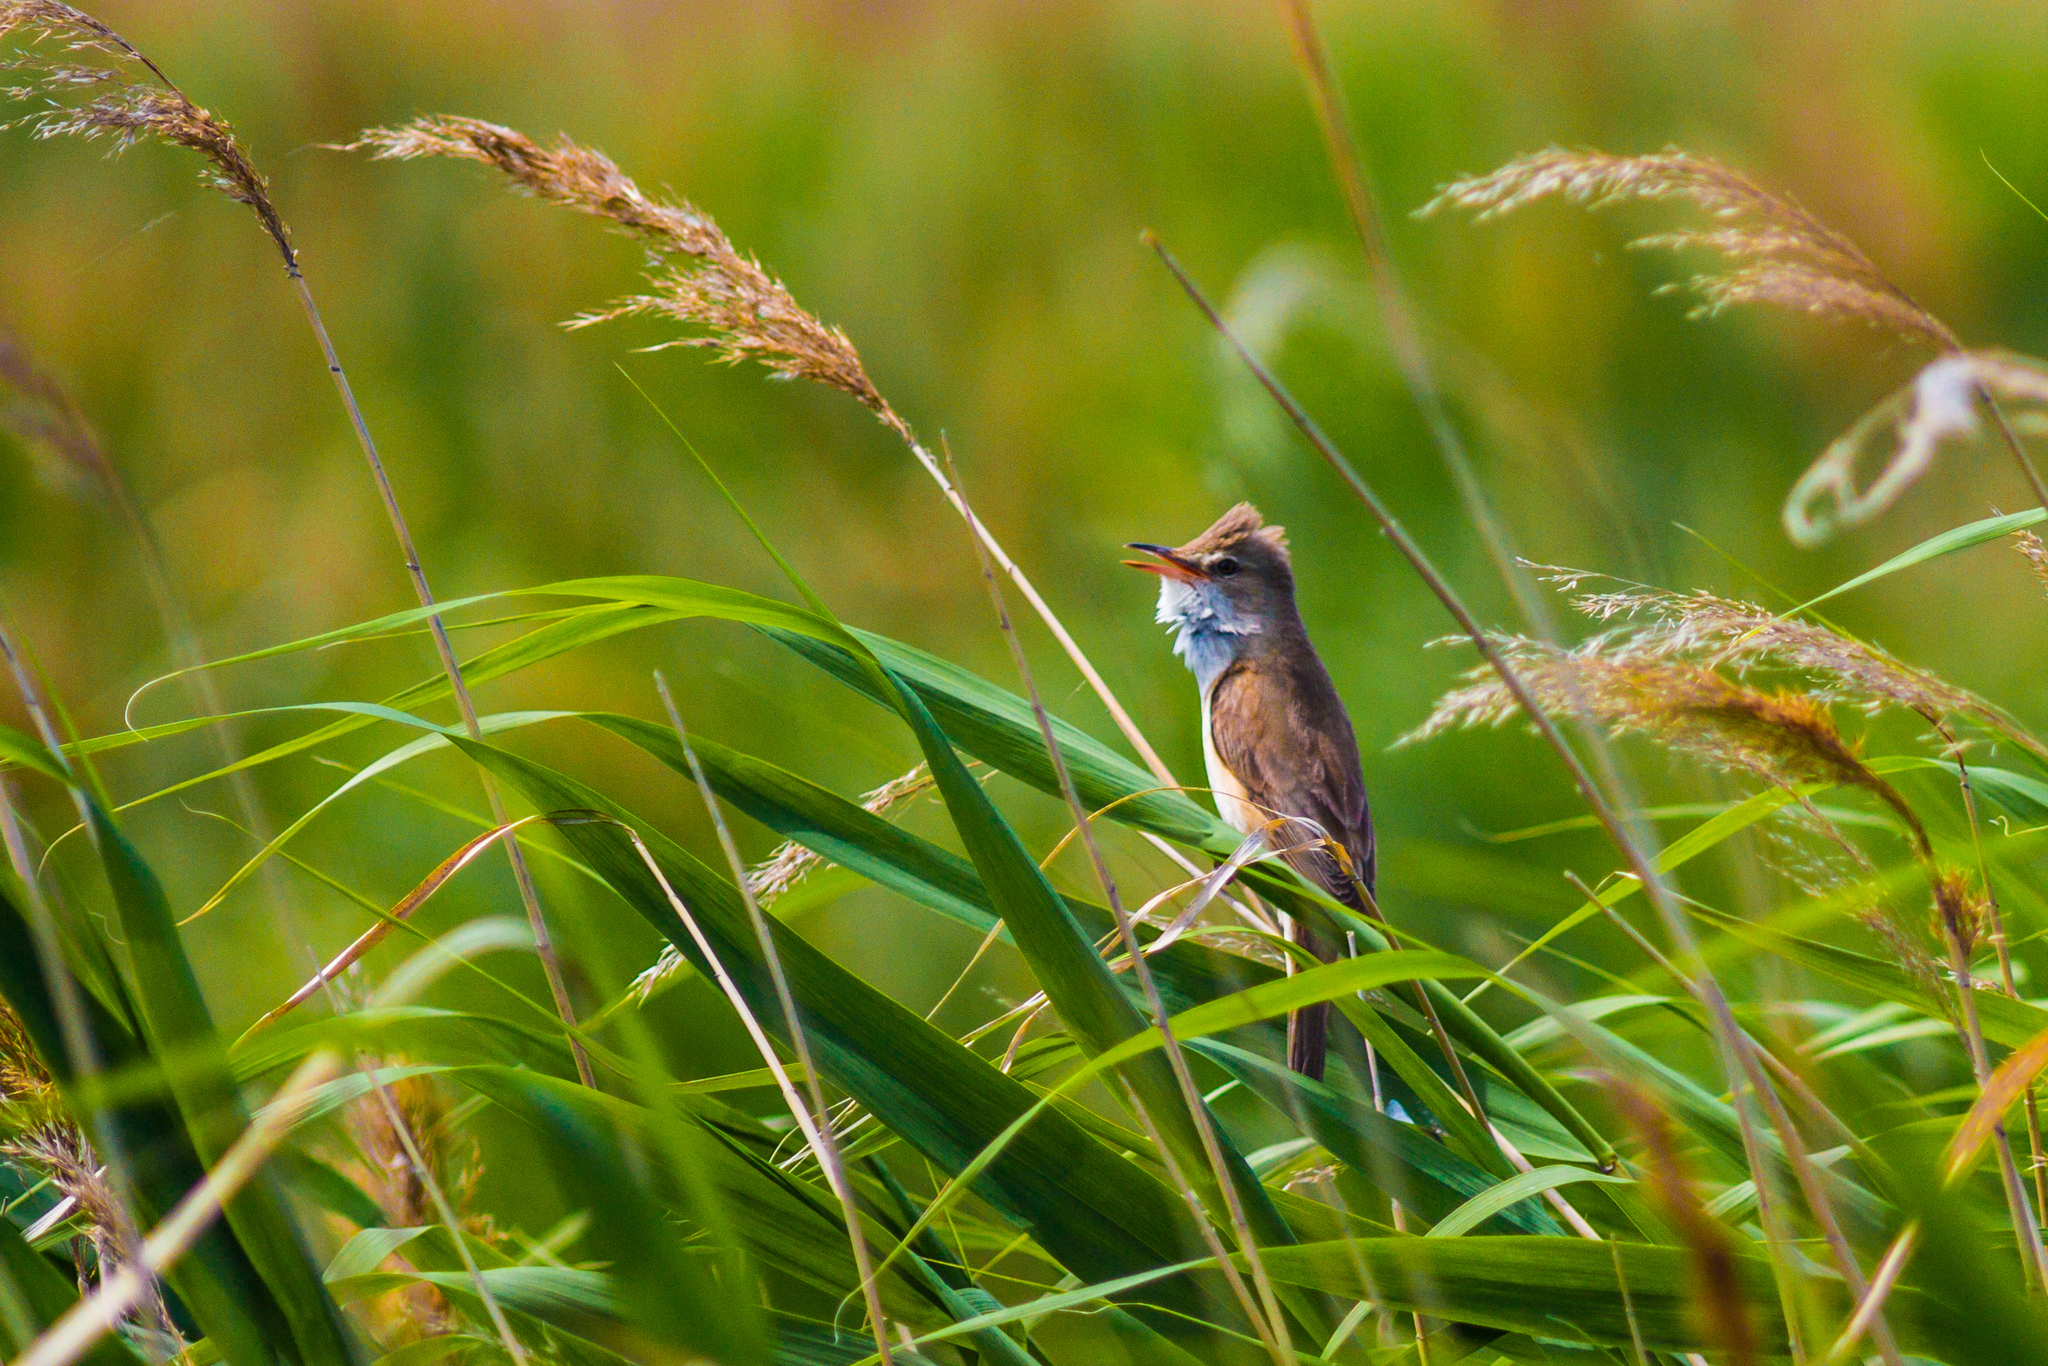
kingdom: Animalia
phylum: Chordata
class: Aves
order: Passeriformes
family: Acrocephalidae
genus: Acrocephalus
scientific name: Acrocephalus arundinaceus
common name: Great reed warbler
